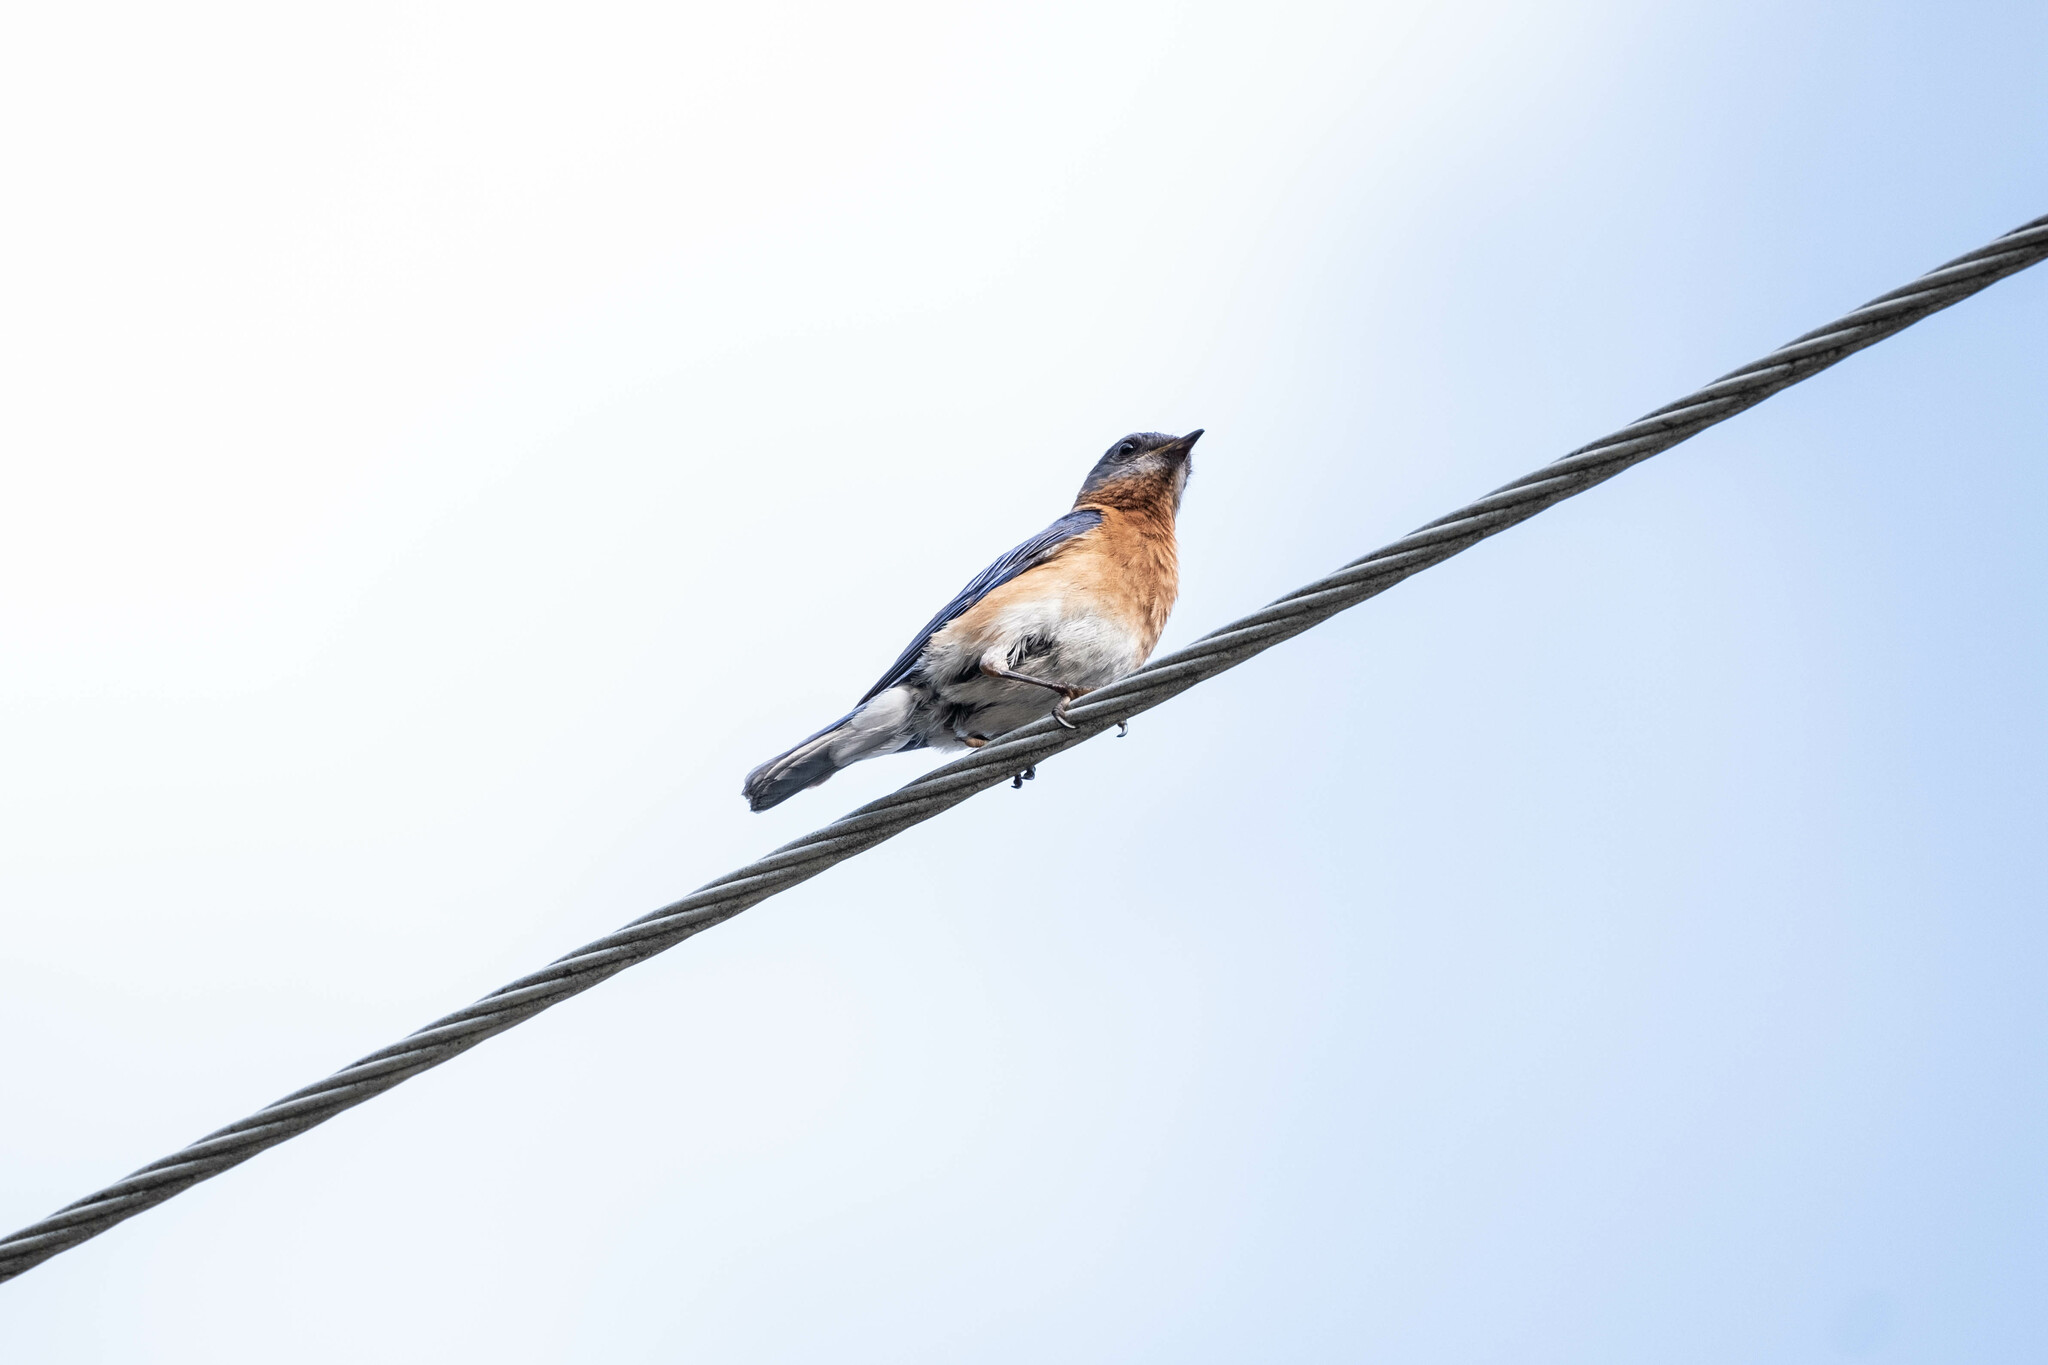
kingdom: Animalia
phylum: Chordata
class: Aves
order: Passeriformes
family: Turdidae
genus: Sialia
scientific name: Sialia sialis
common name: Eastern bluebird
